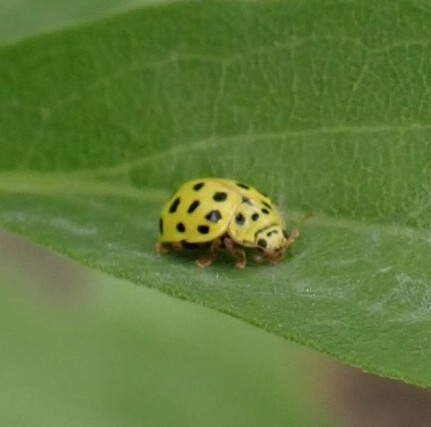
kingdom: Animalia
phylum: Arthropoda
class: Insecta
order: Coleoptera
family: Coccinellidae
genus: Psyllobora
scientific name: Psyllobora vigintiduopunctata
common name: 22-spot ladybird
